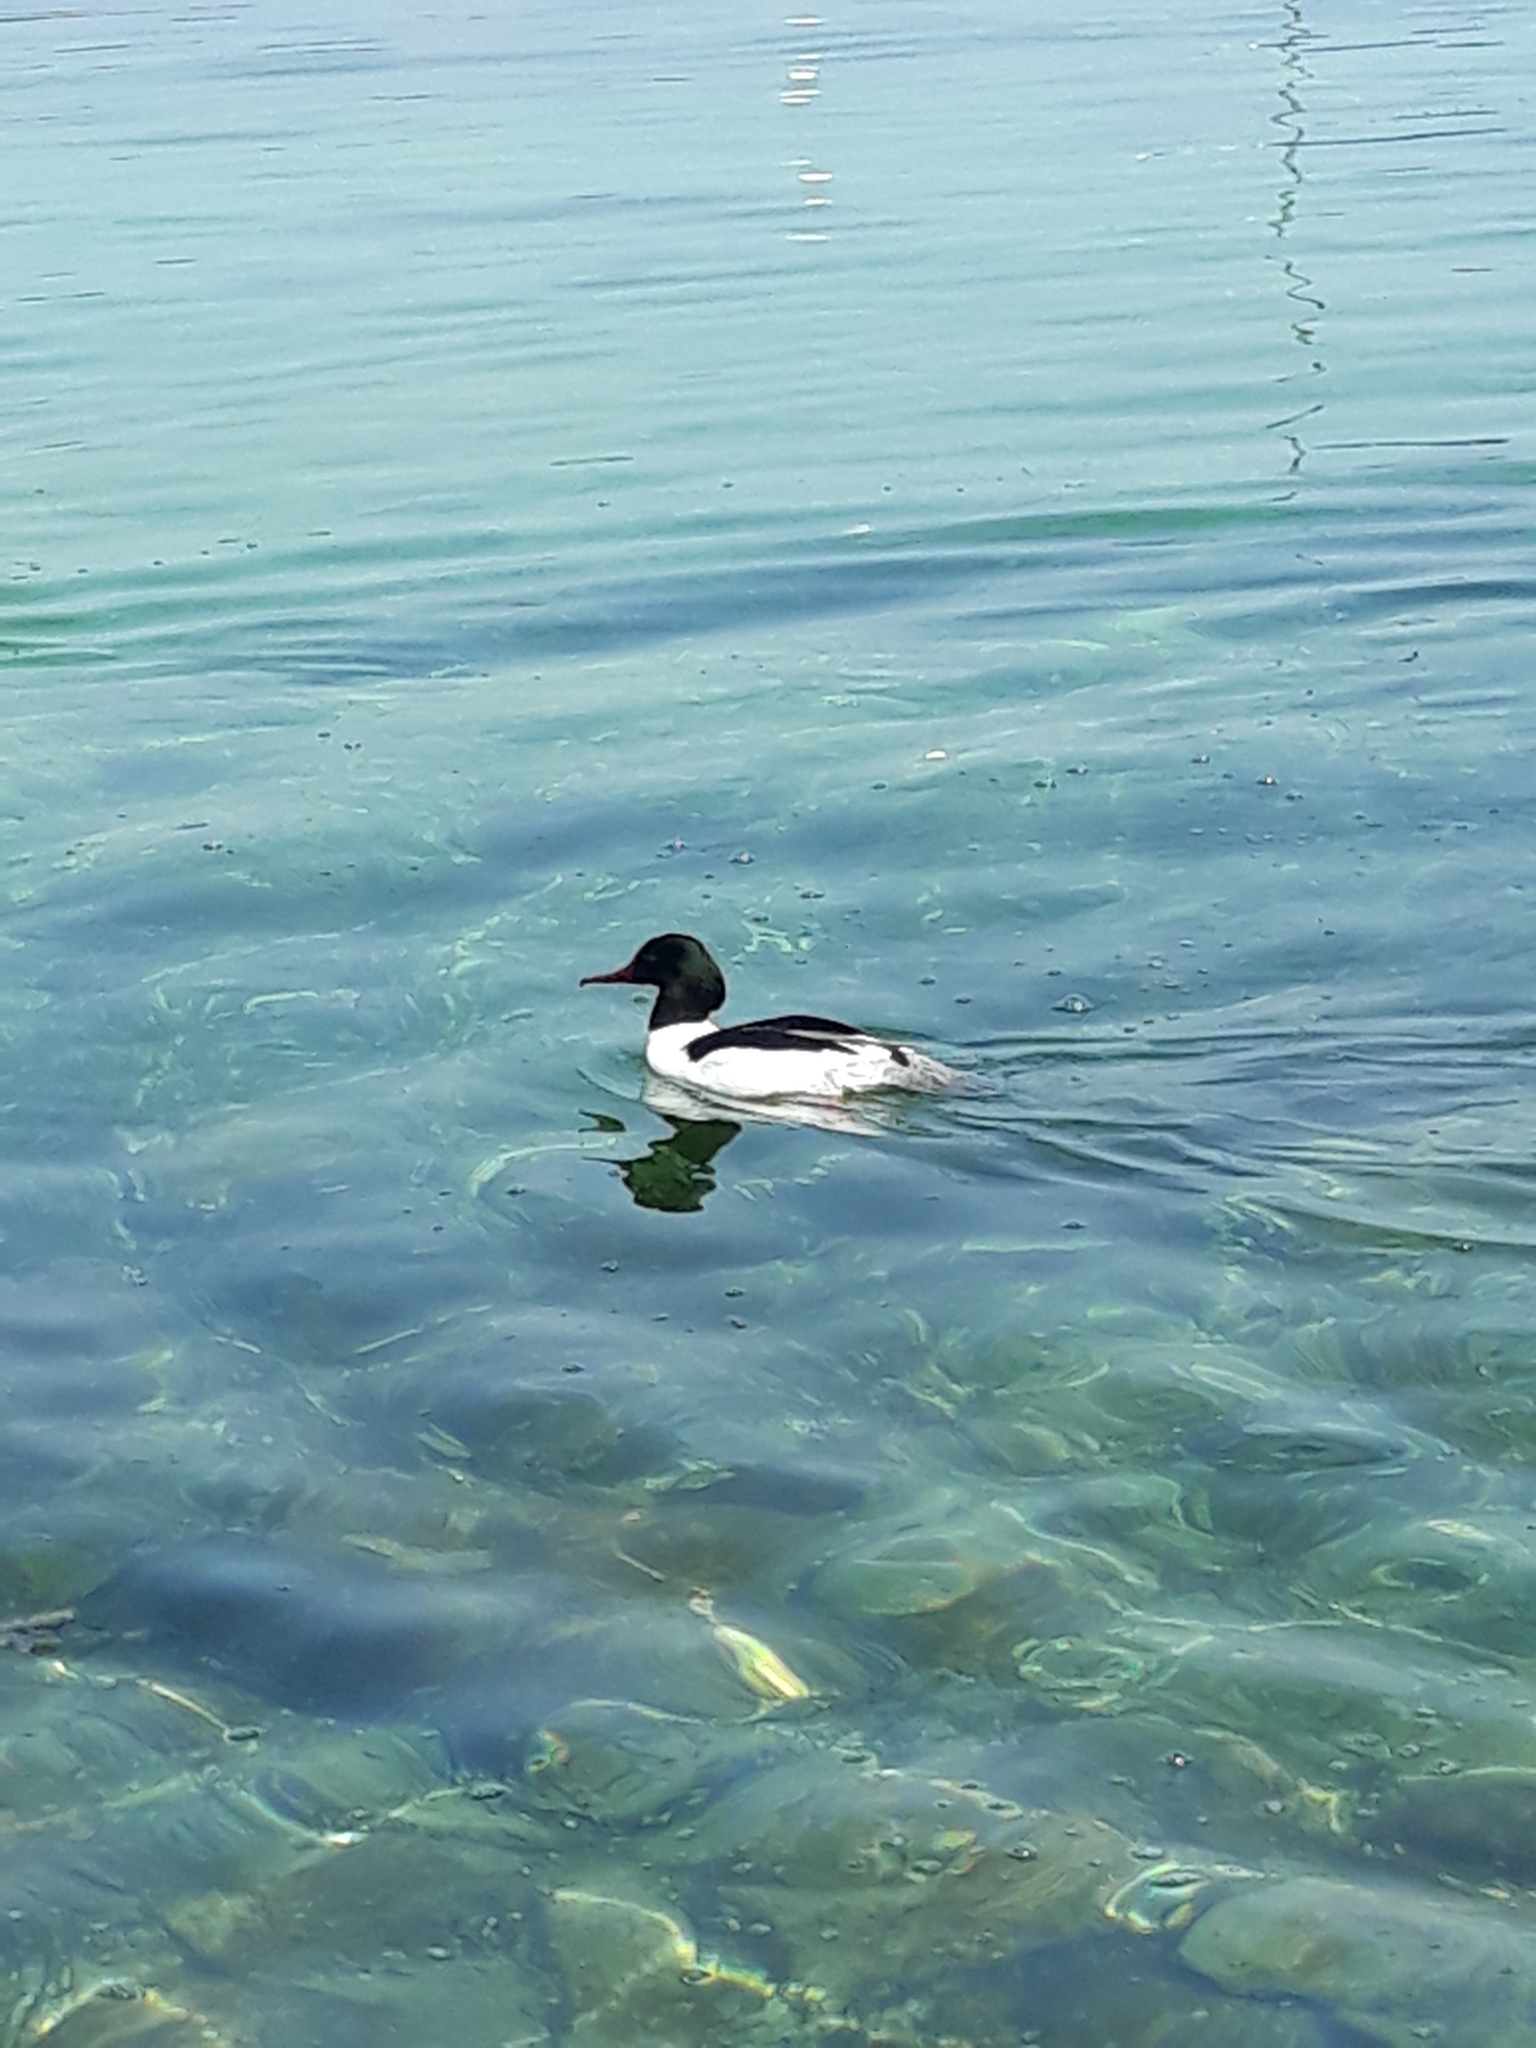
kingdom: Animalia
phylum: Chordata
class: Aves
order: Anseriformes
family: Anatidae
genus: Mergus
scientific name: Mergus merganser
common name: Common merganser
